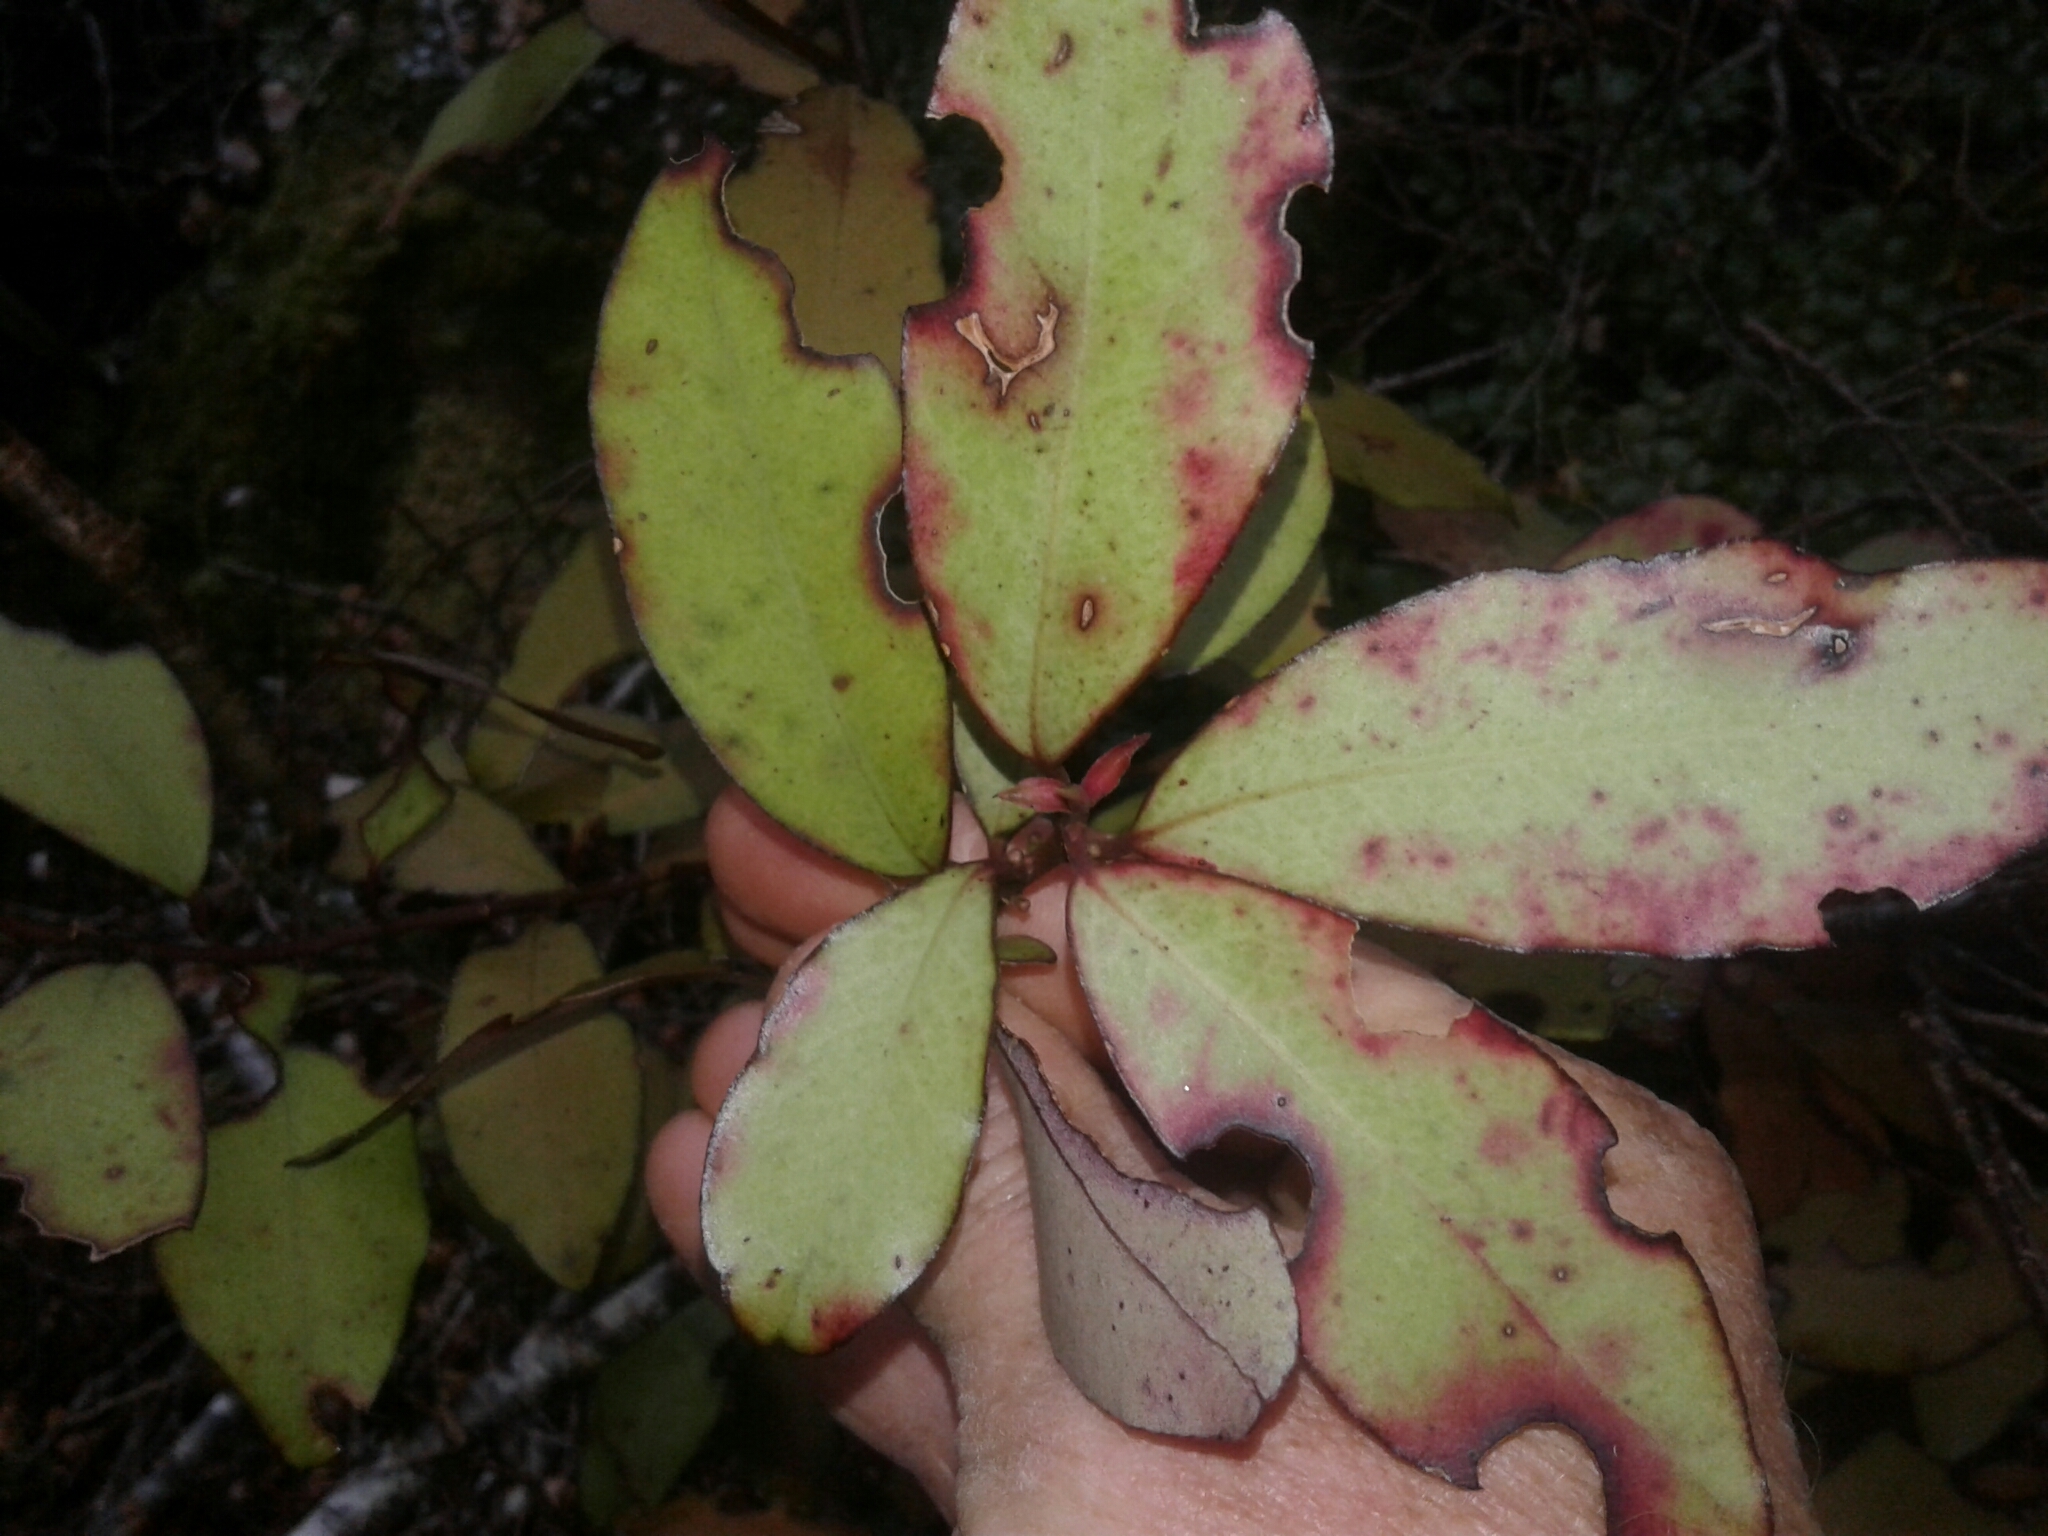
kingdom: Plantae
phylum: Tracheophyta
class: Magnoliopsida
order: Canellales
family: Winteraceae
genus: Pseudowintera
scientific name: Pseudowintera colorata
